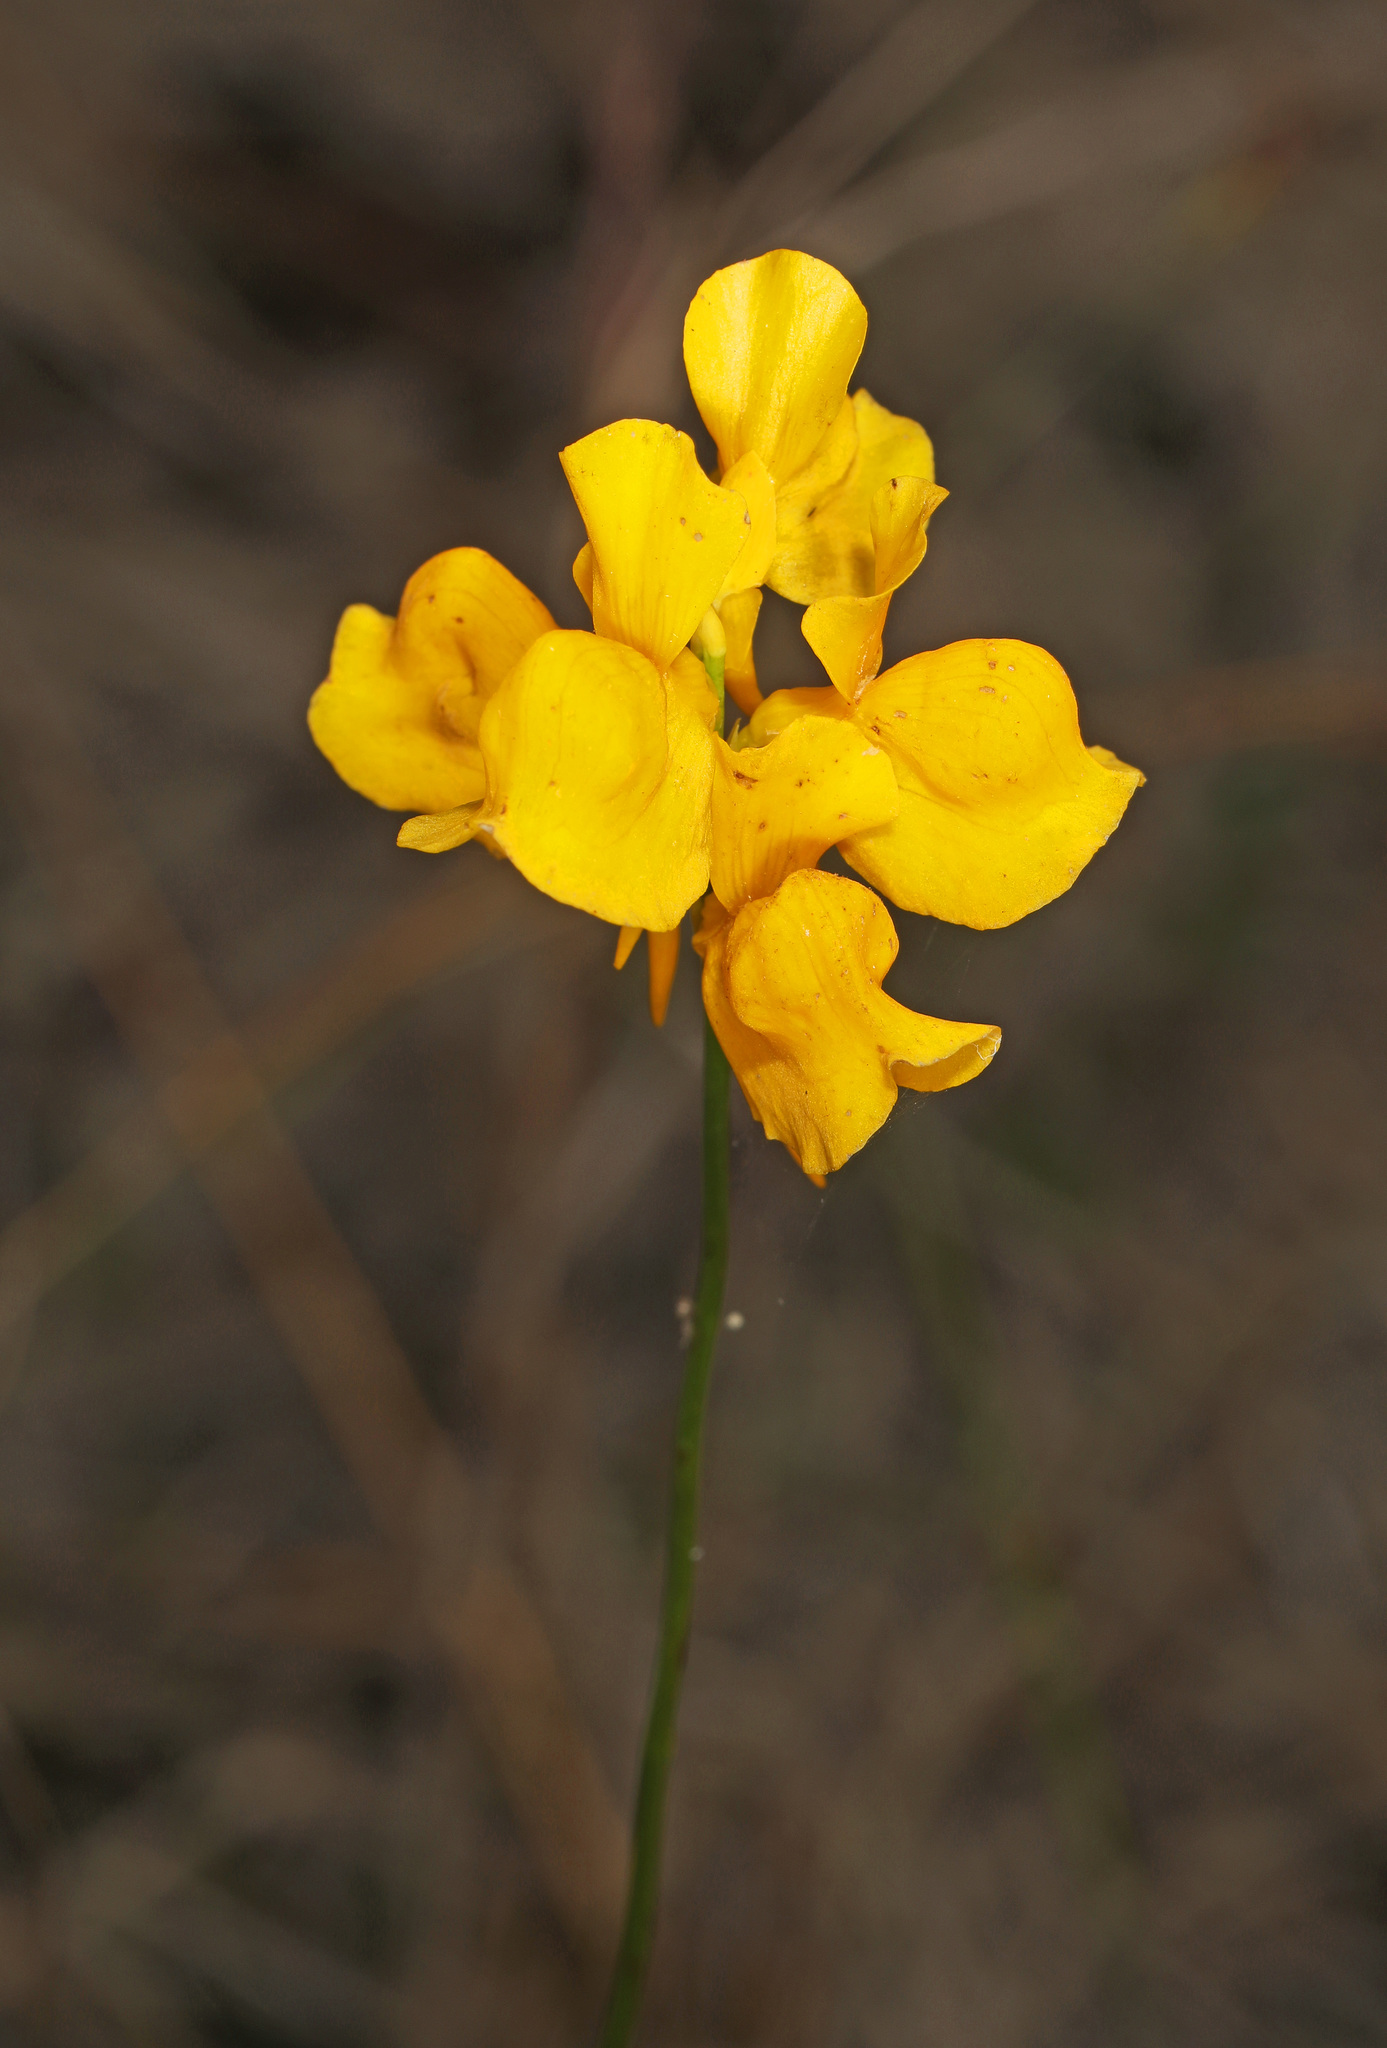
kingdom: Plantae
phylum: Tracheophyta
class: Magnoliopsida
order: Lamiales
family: Lentibulariaceae
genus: Utricularia
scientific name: Utricularia cornuta
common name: Horned bladderwort
